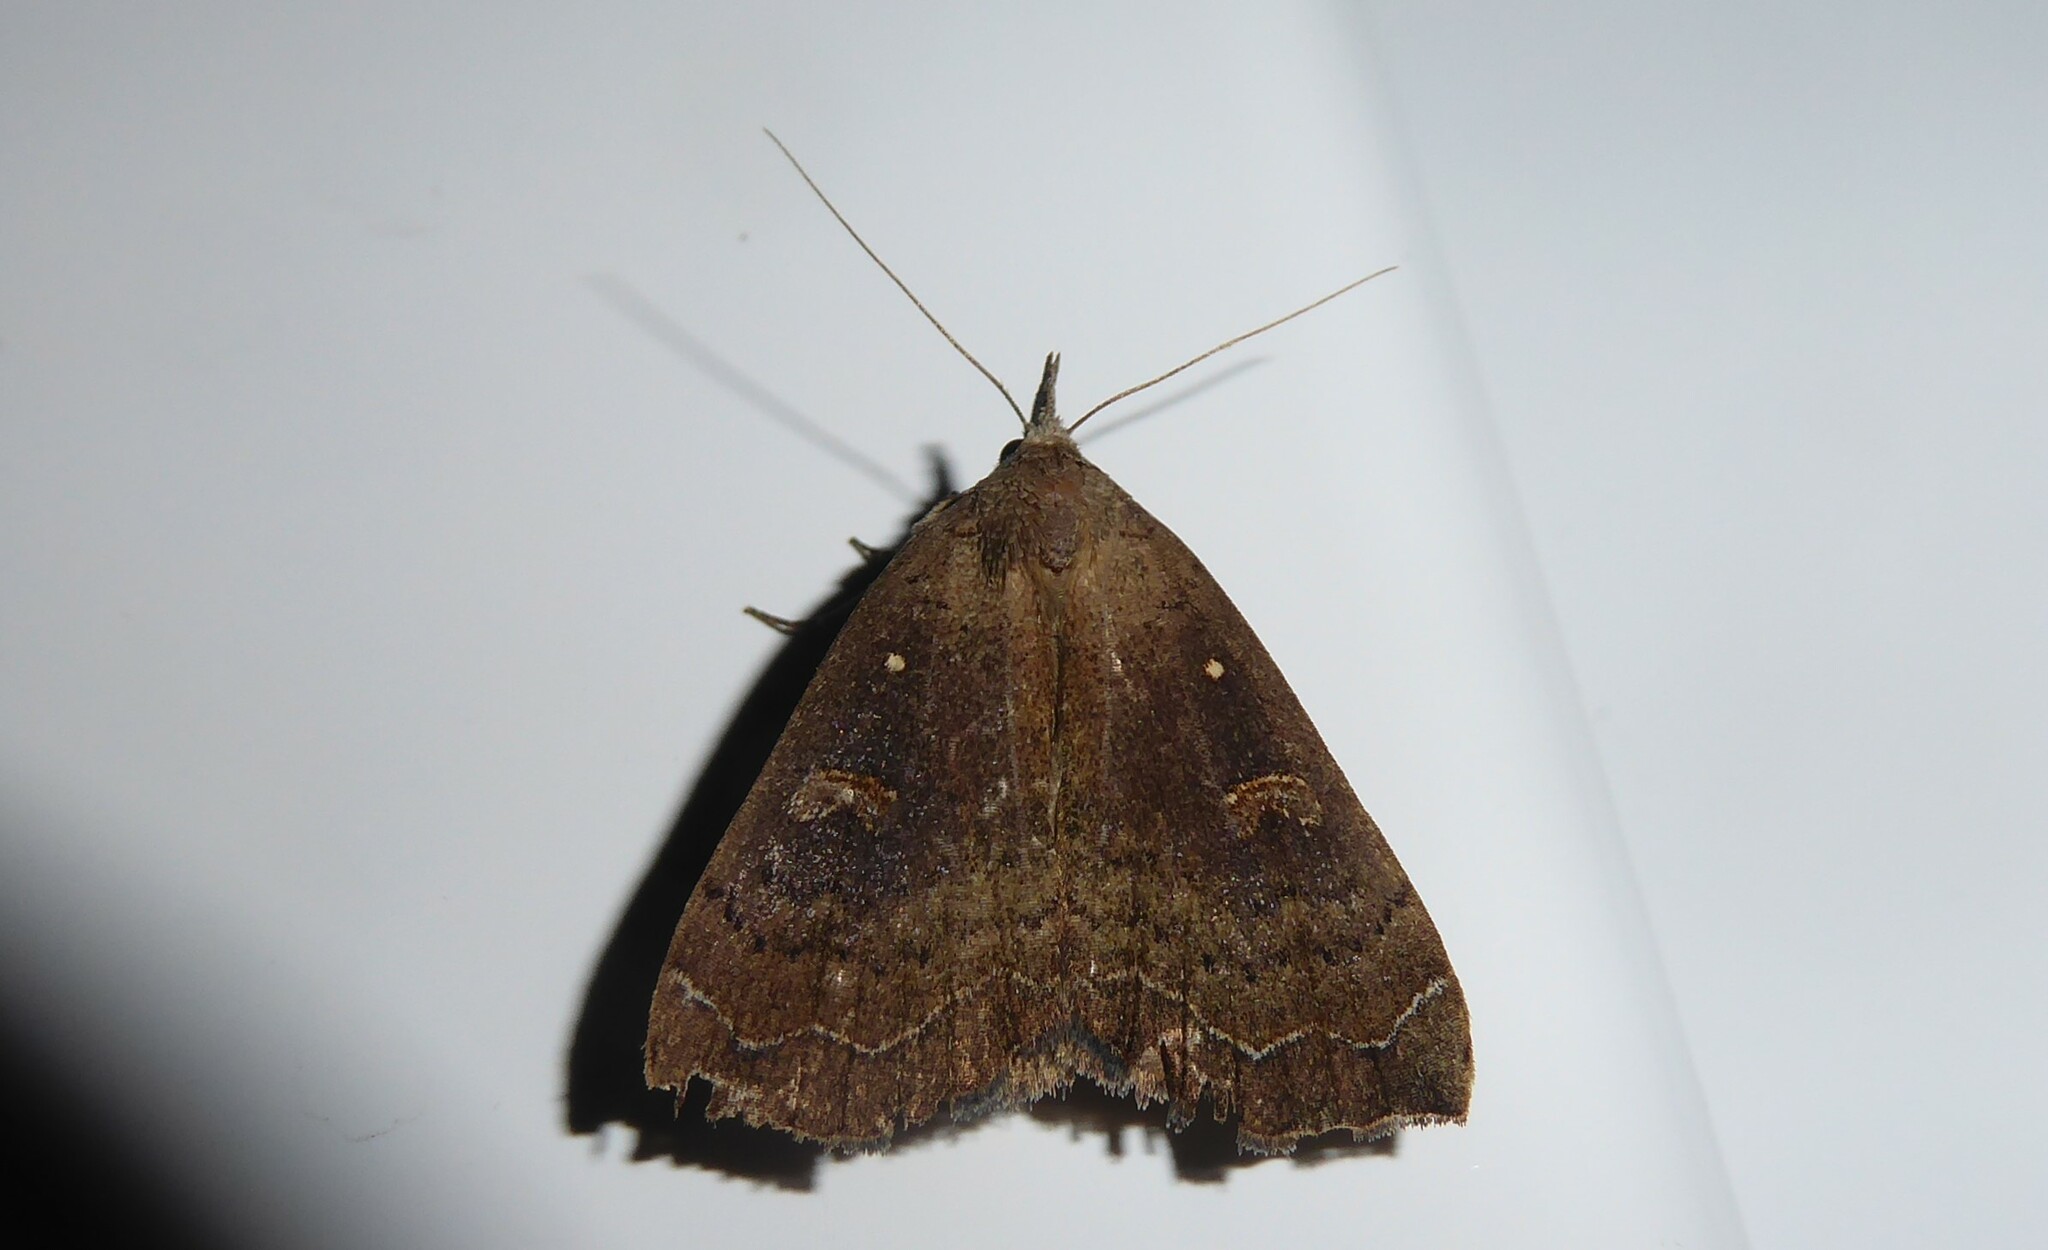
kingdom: Animalia
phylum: Arthropoda
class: Insecta
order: Lepidoptera
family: Erebidae
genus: Rhapsa
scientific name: Rhapsa scotosialis
